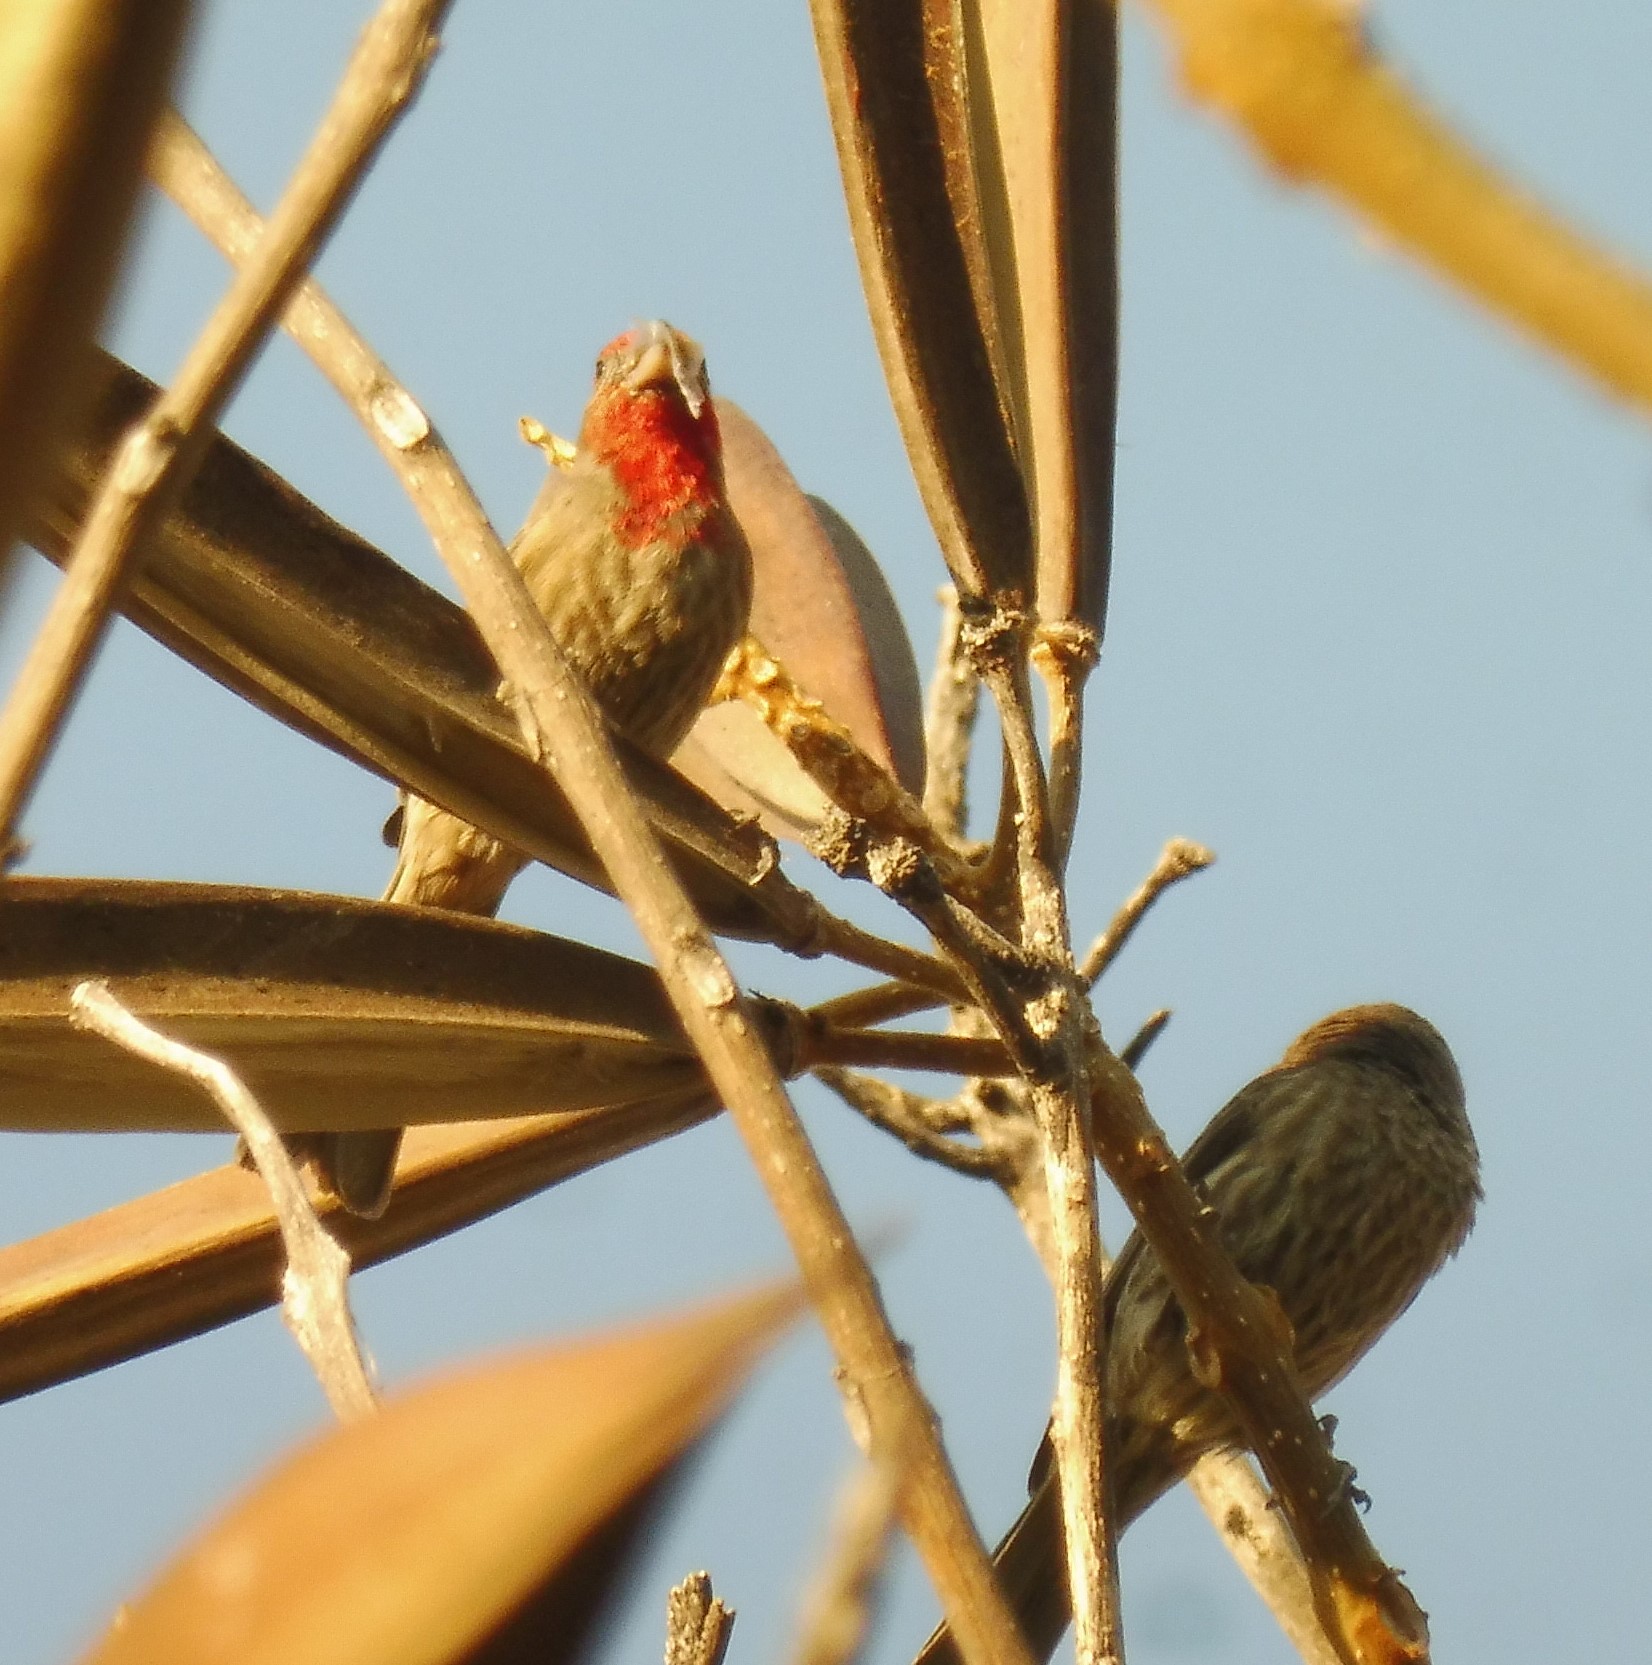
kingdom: Animalia
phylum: Chordata
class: Aves
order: Passeriformes
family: Fringillidae
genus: Haemorhous
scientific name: Haemorhous mexicanus
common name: House finch
